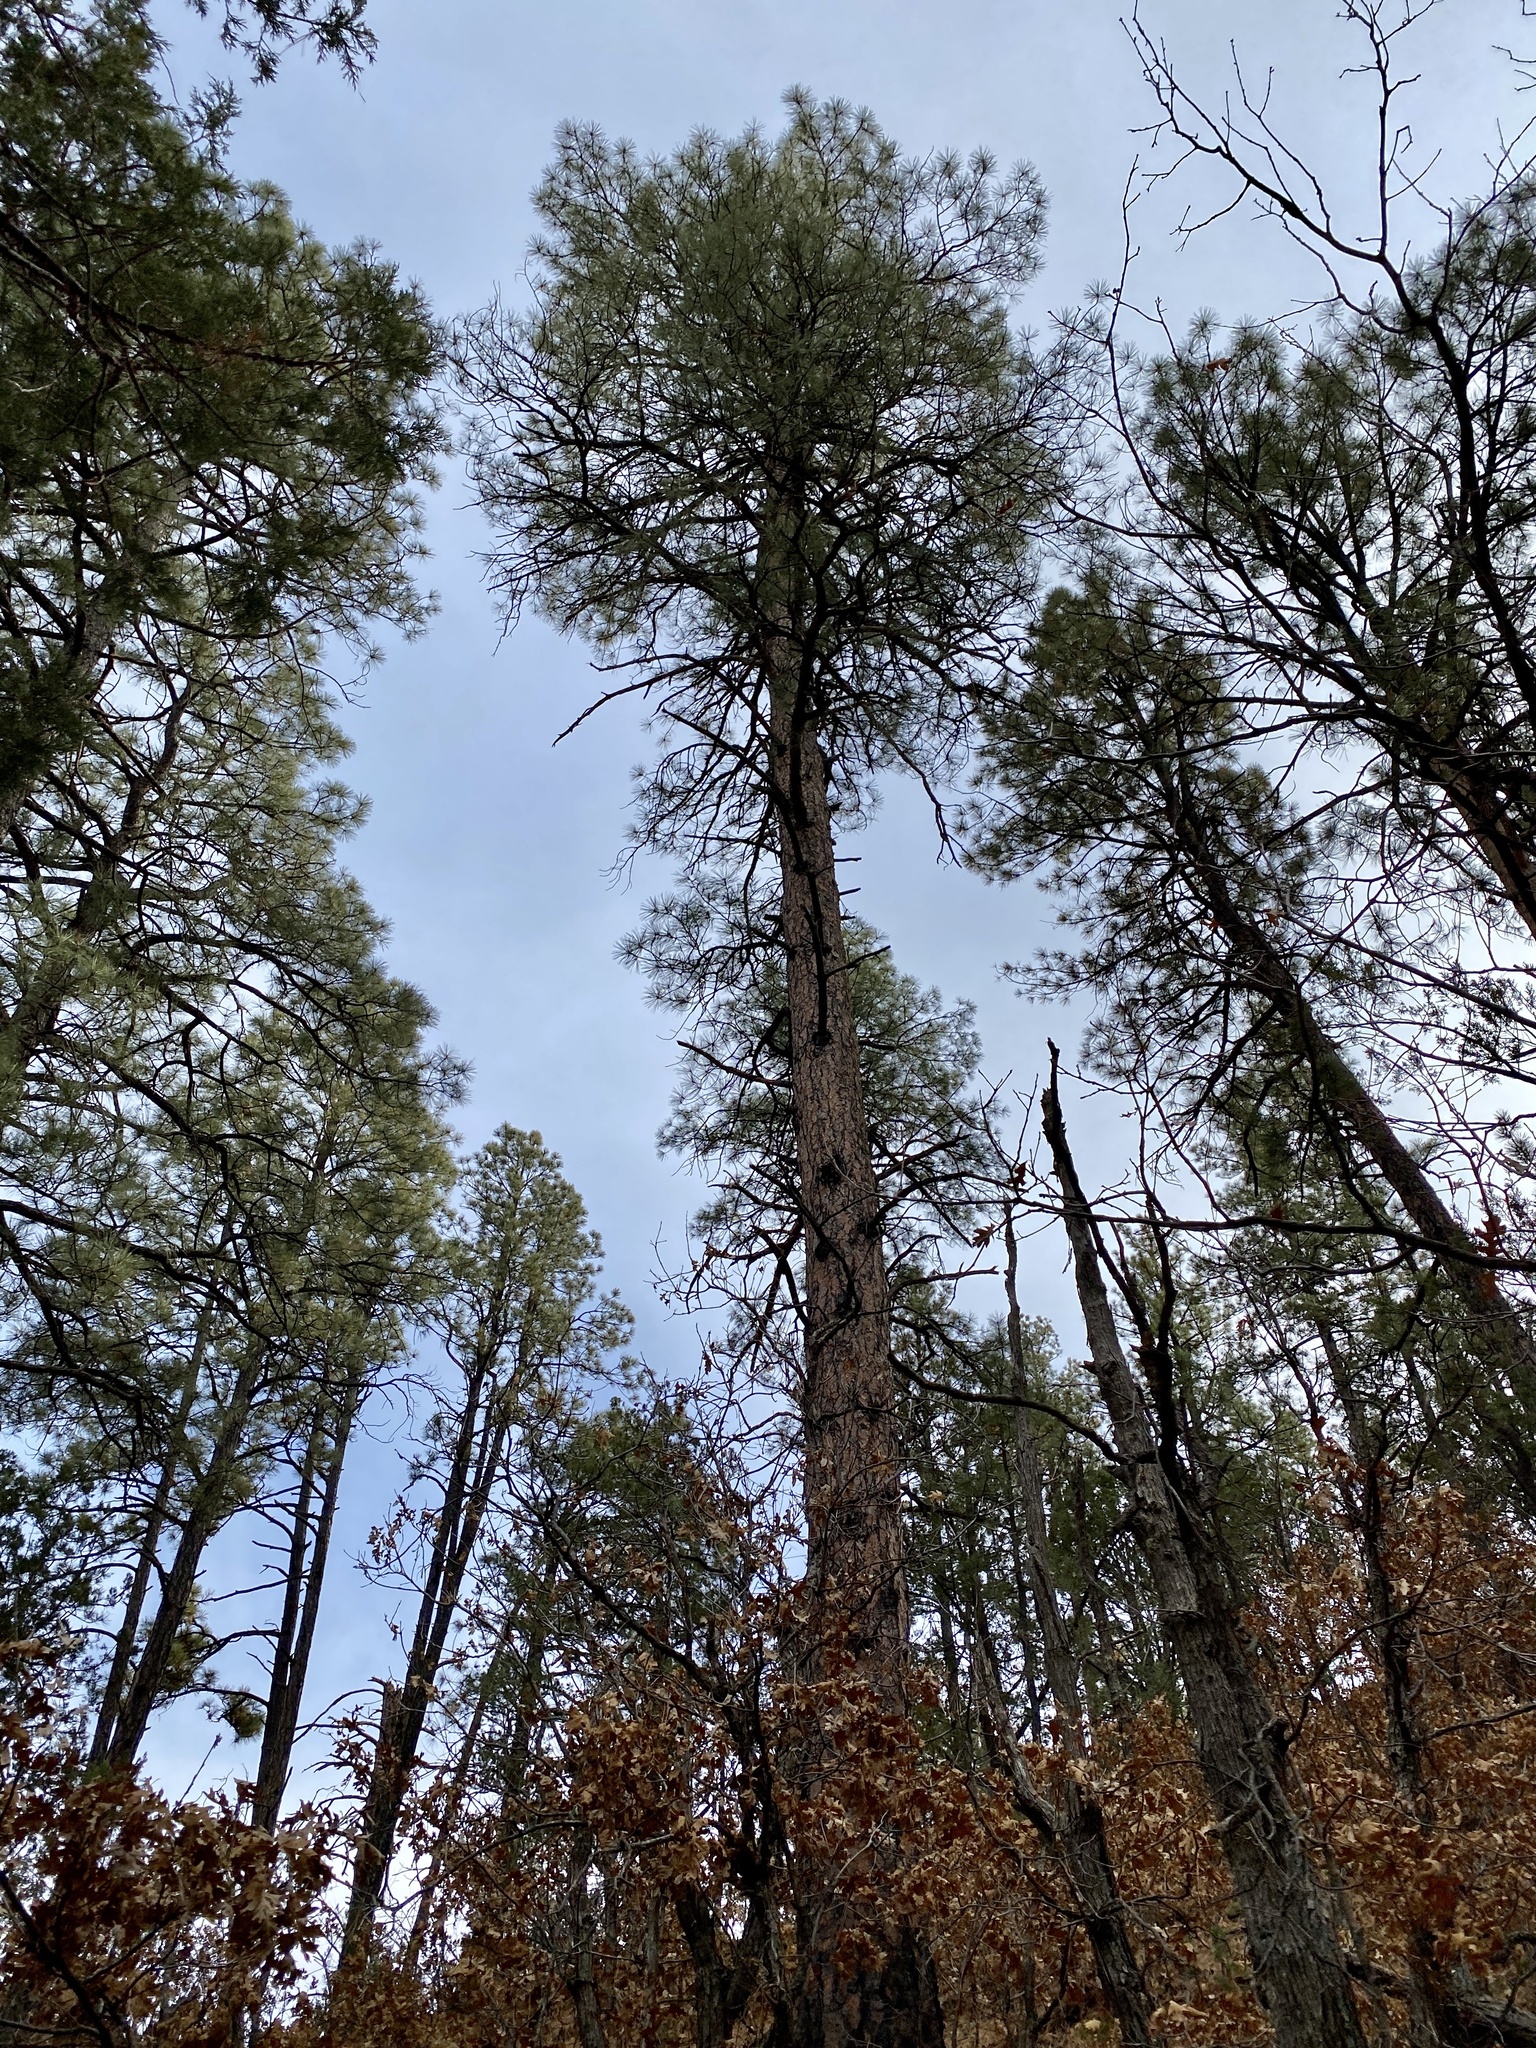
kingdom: Plantae
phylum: Tracheophyta
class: Pinopsida
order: Pinales
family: Pinaceae
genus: Pinus
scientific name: Pinus ponderosa
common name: Western yellow-pine
